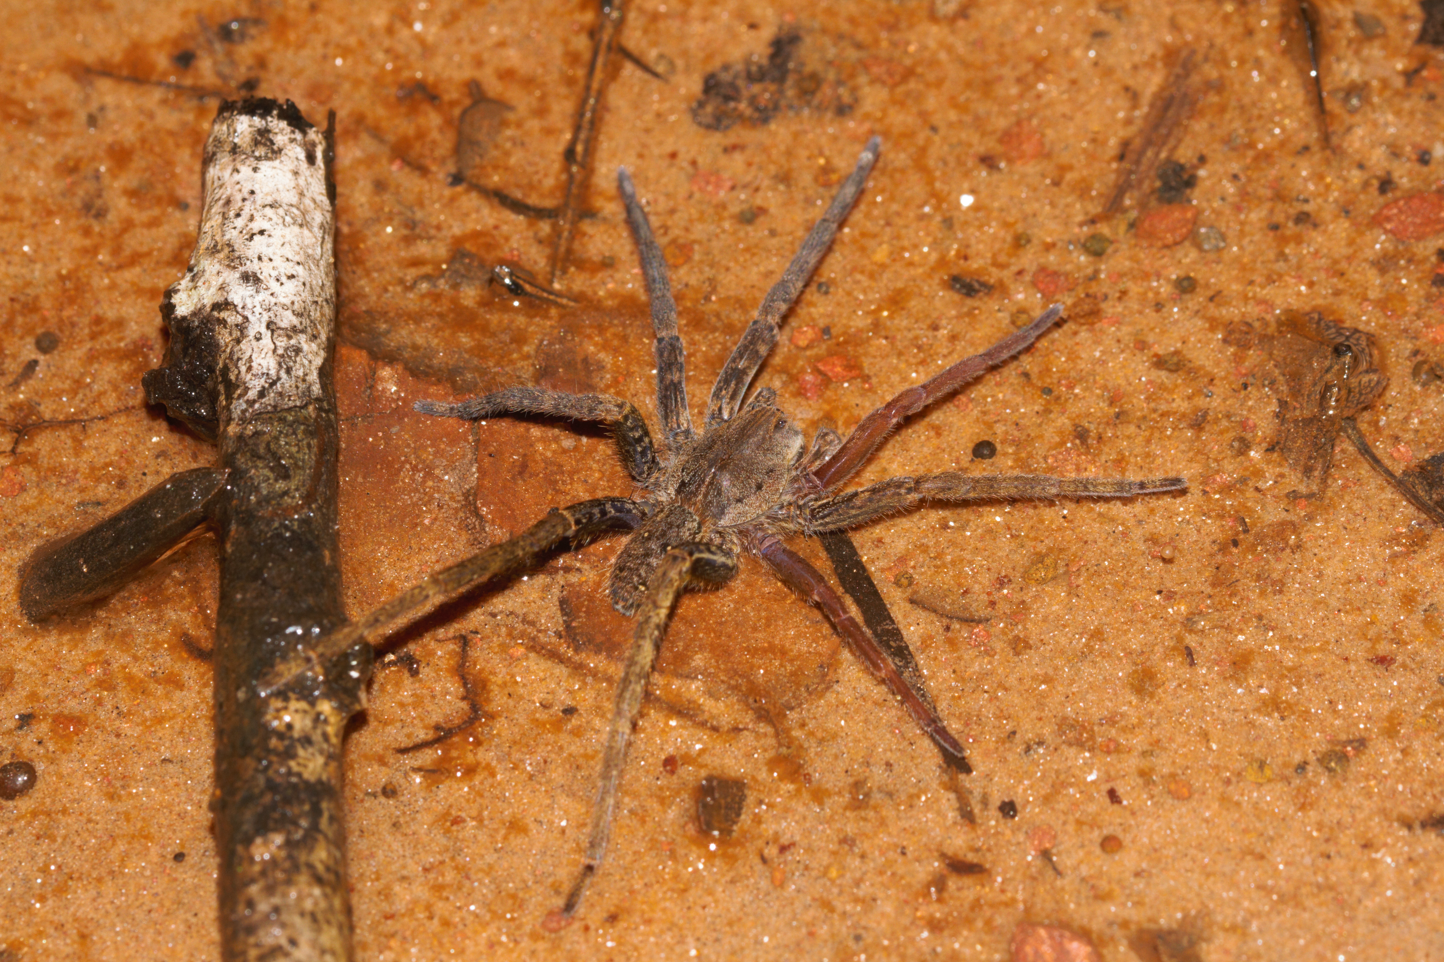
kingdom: Animalia
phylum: Arthropoda
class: Arachnida
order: Araneae
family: Ctenidae
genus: Ancylometes
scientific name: Ancylometes
